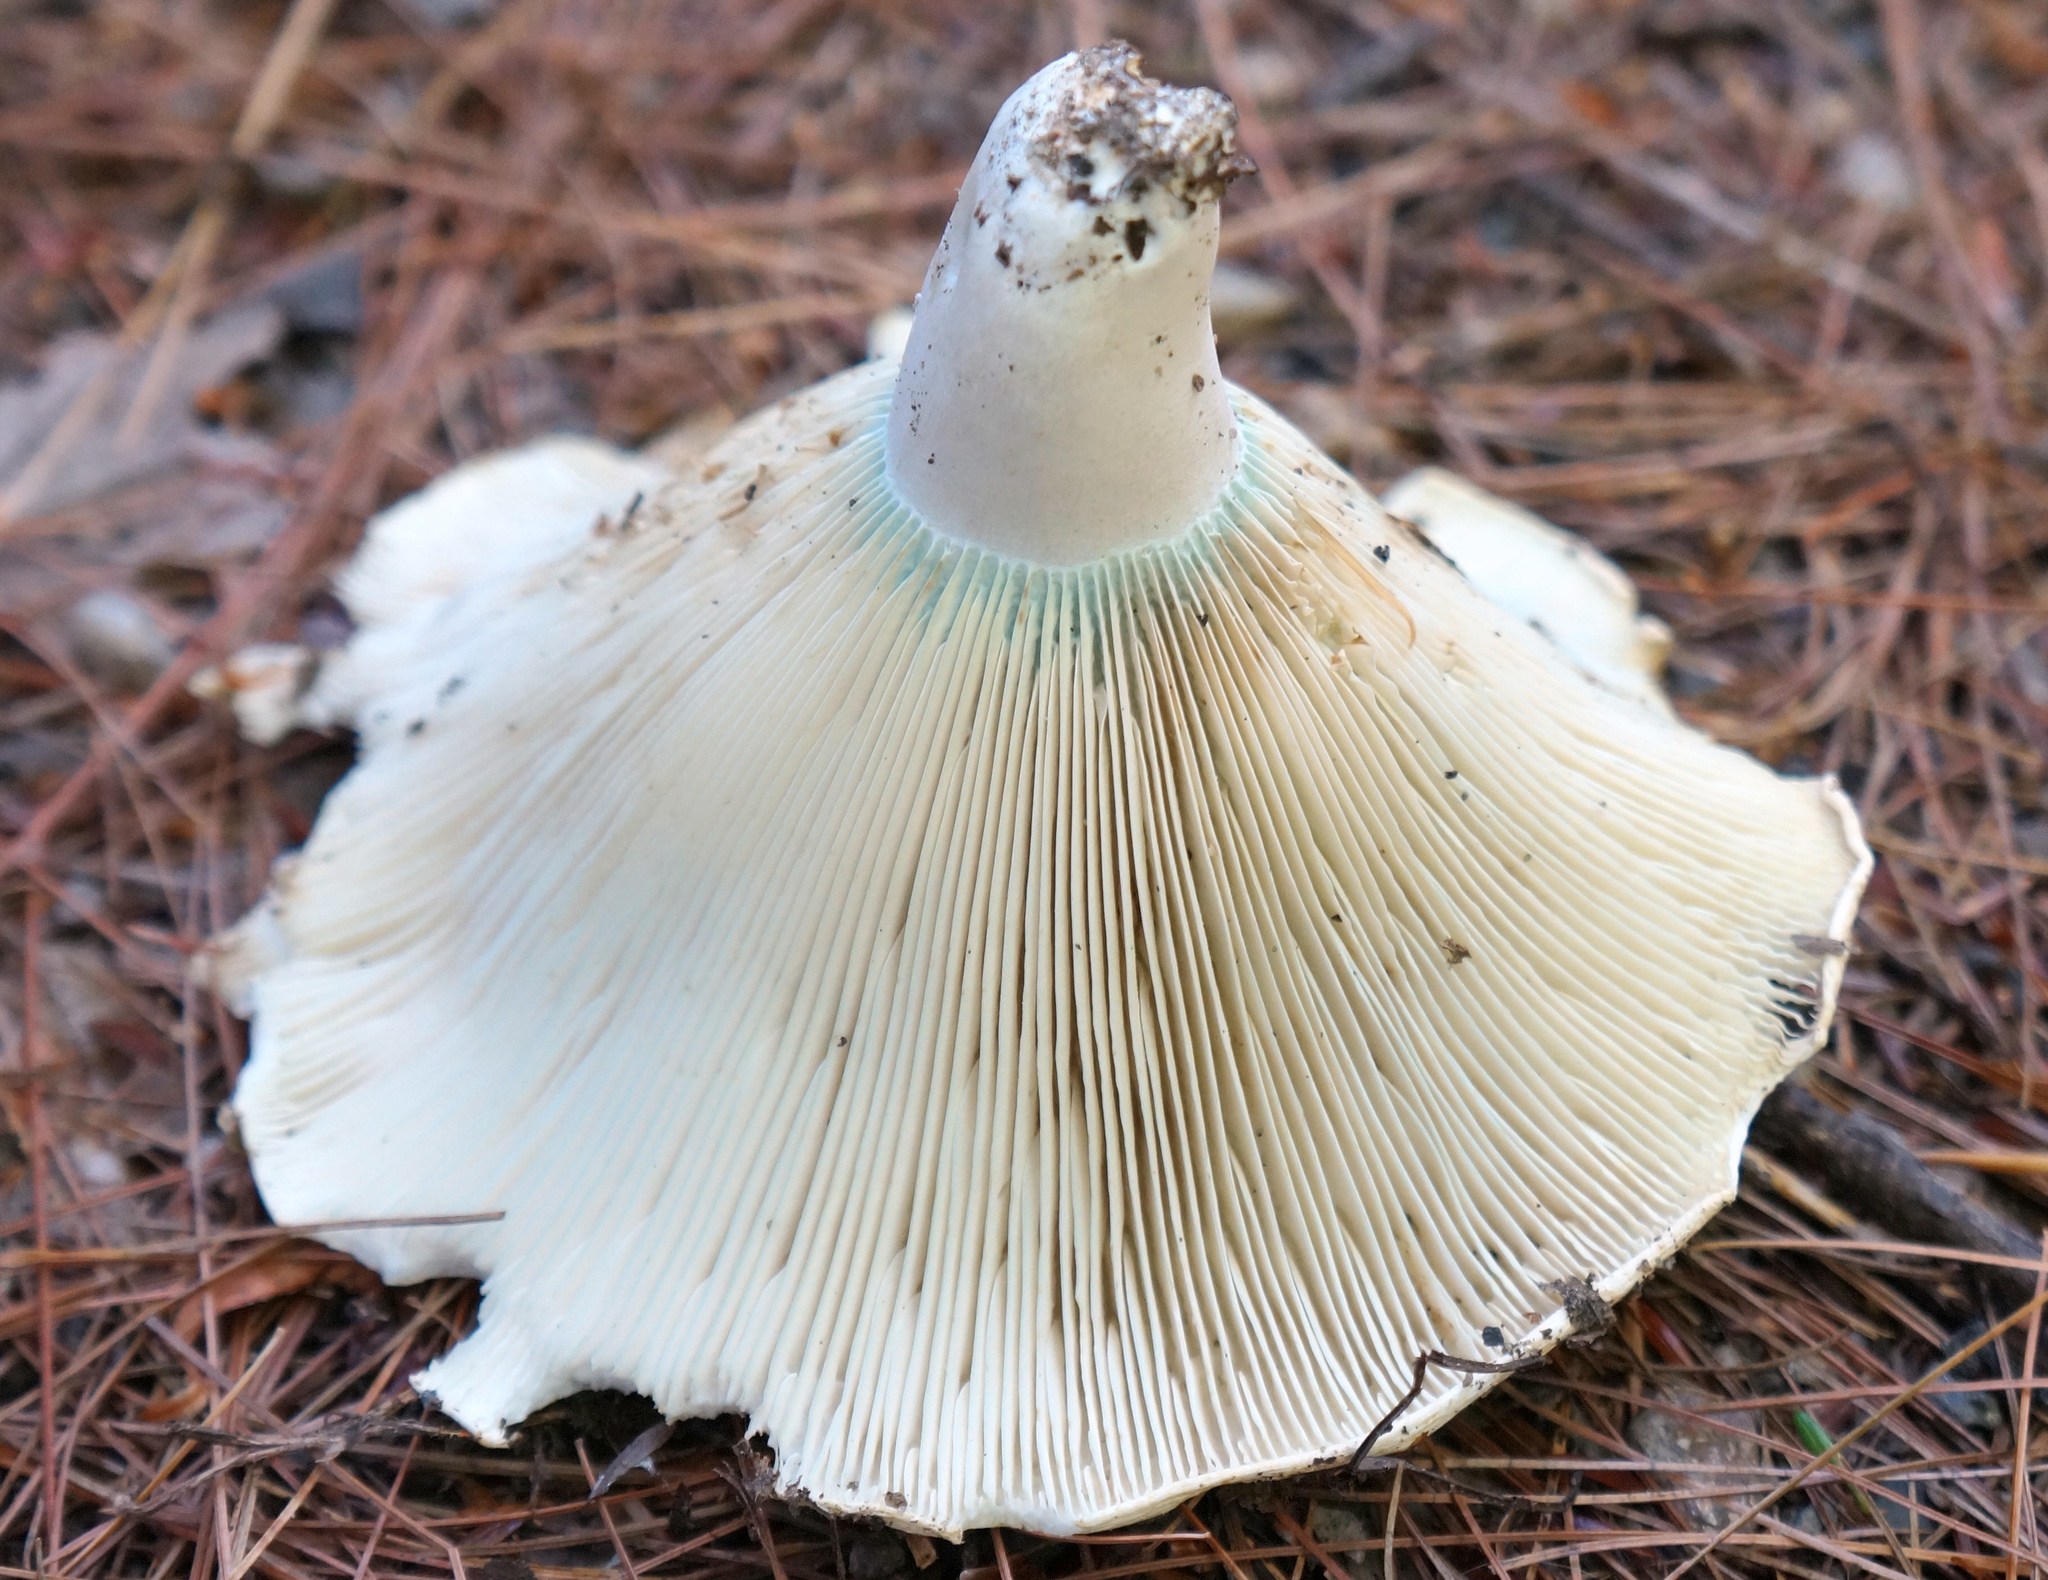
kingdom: Fungi
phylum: Basidiomycota
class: Agaricomycetes
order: Russulales
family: Russulaceae
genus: Russula
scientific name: Russula brevipes
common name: Short-stemmed russula
